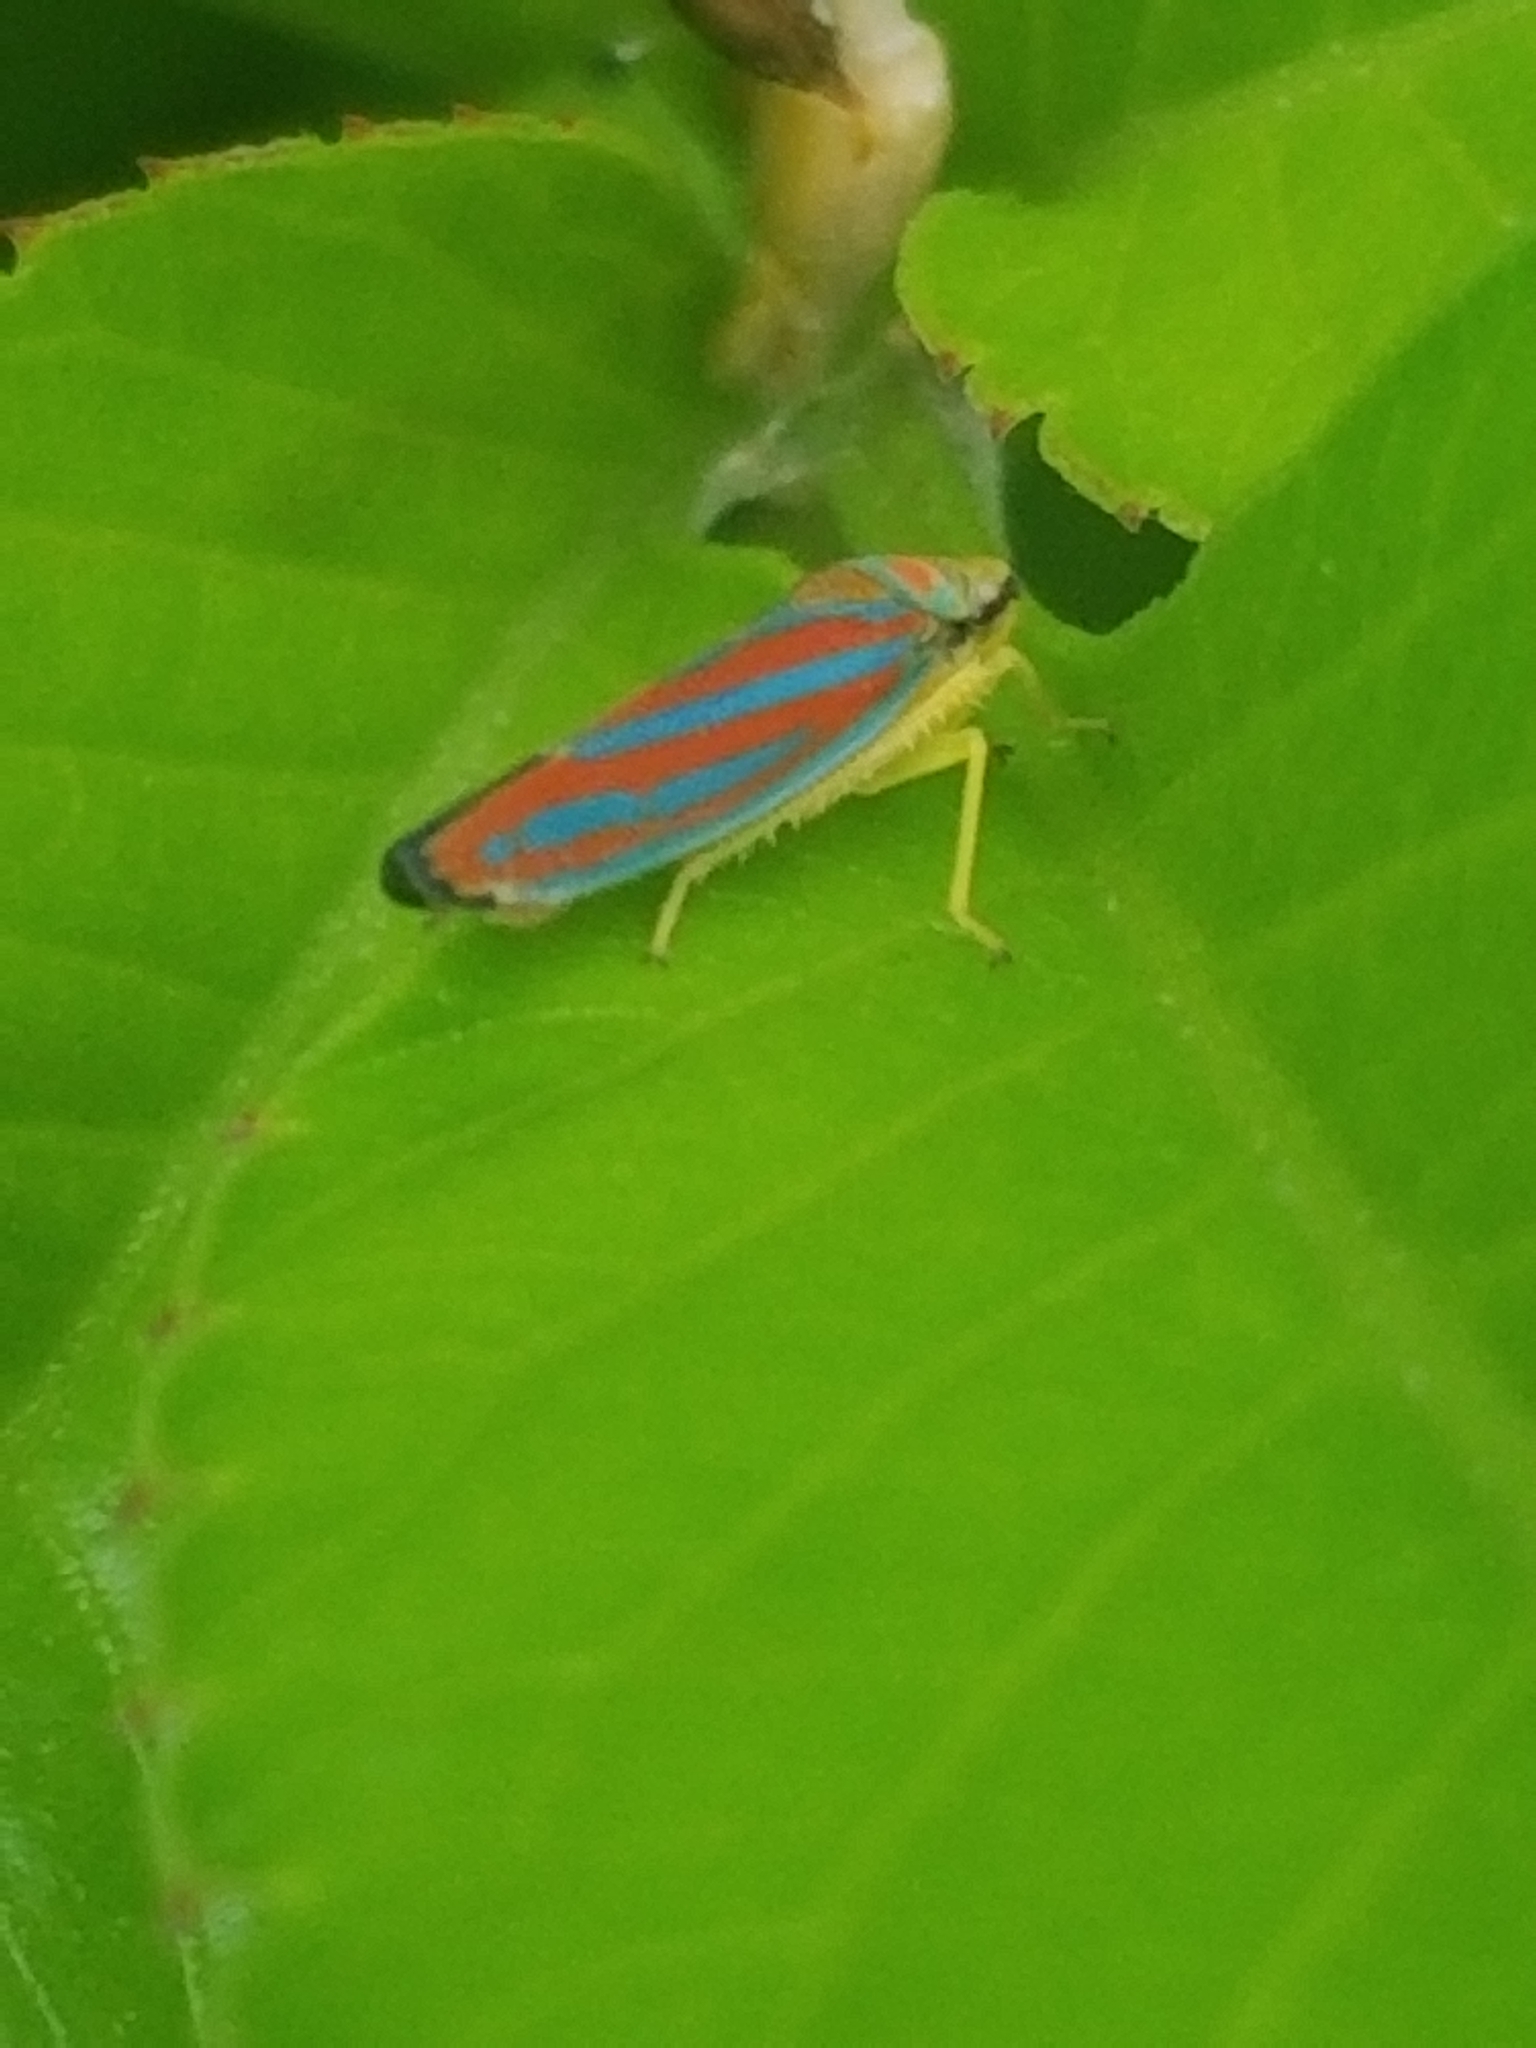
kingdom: Animalia
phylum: Arthropoda
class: Insecta
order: Hemiptera
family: Cicadellidae
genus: Graphocephala
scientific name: Graphocephala coccinea
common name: Candy-striped leafhopper
